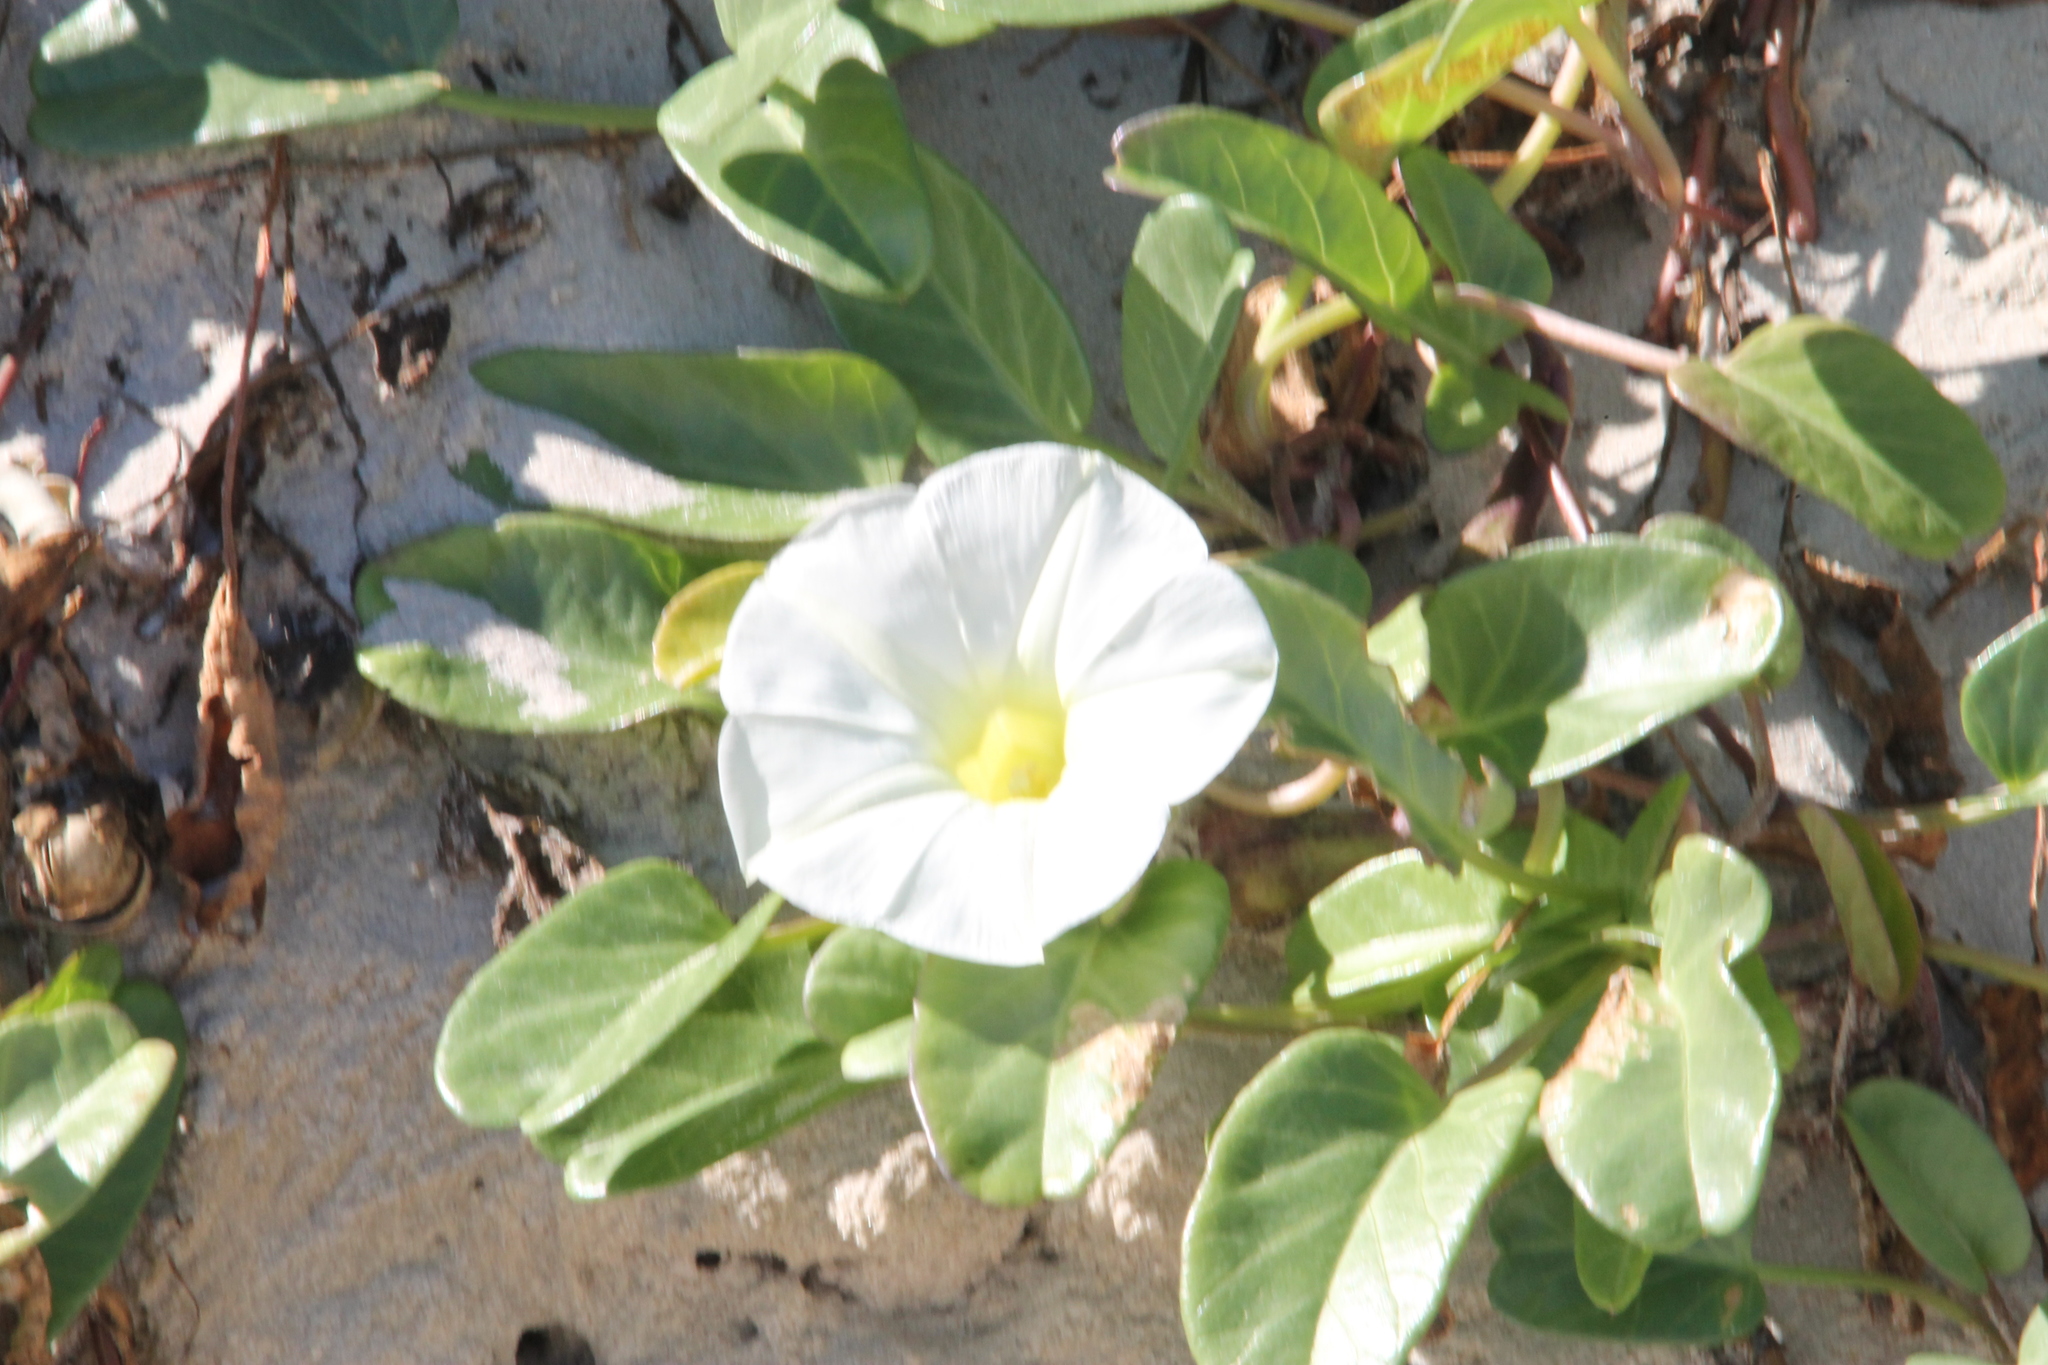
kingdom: Plantae
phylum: Tracheophyta
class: Magnoliopsida
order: Solanales
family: Convolvulaceae
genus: Ipomoea
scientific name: Ipomoea imperati
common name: Fiddle-leaf morning-glory
